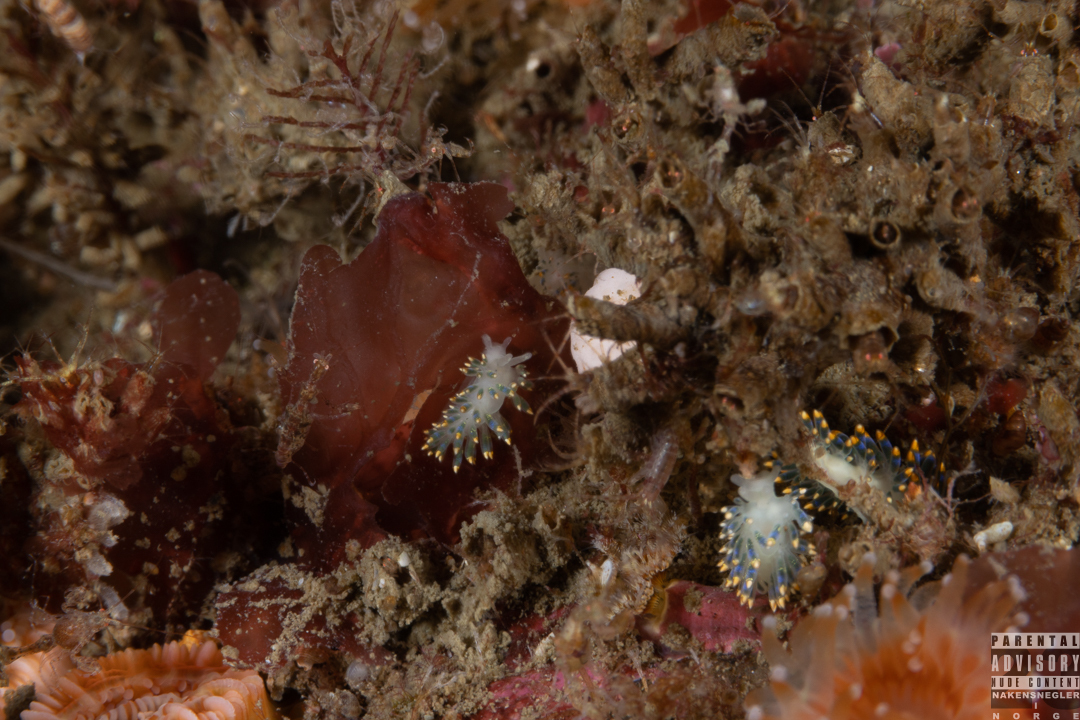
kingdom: Animalia
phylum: Mollusca
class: Gastropoda
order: Nudibranchia
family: Trinchesiidae
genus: Trinchesia
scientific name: Trinchesia cuanensis
